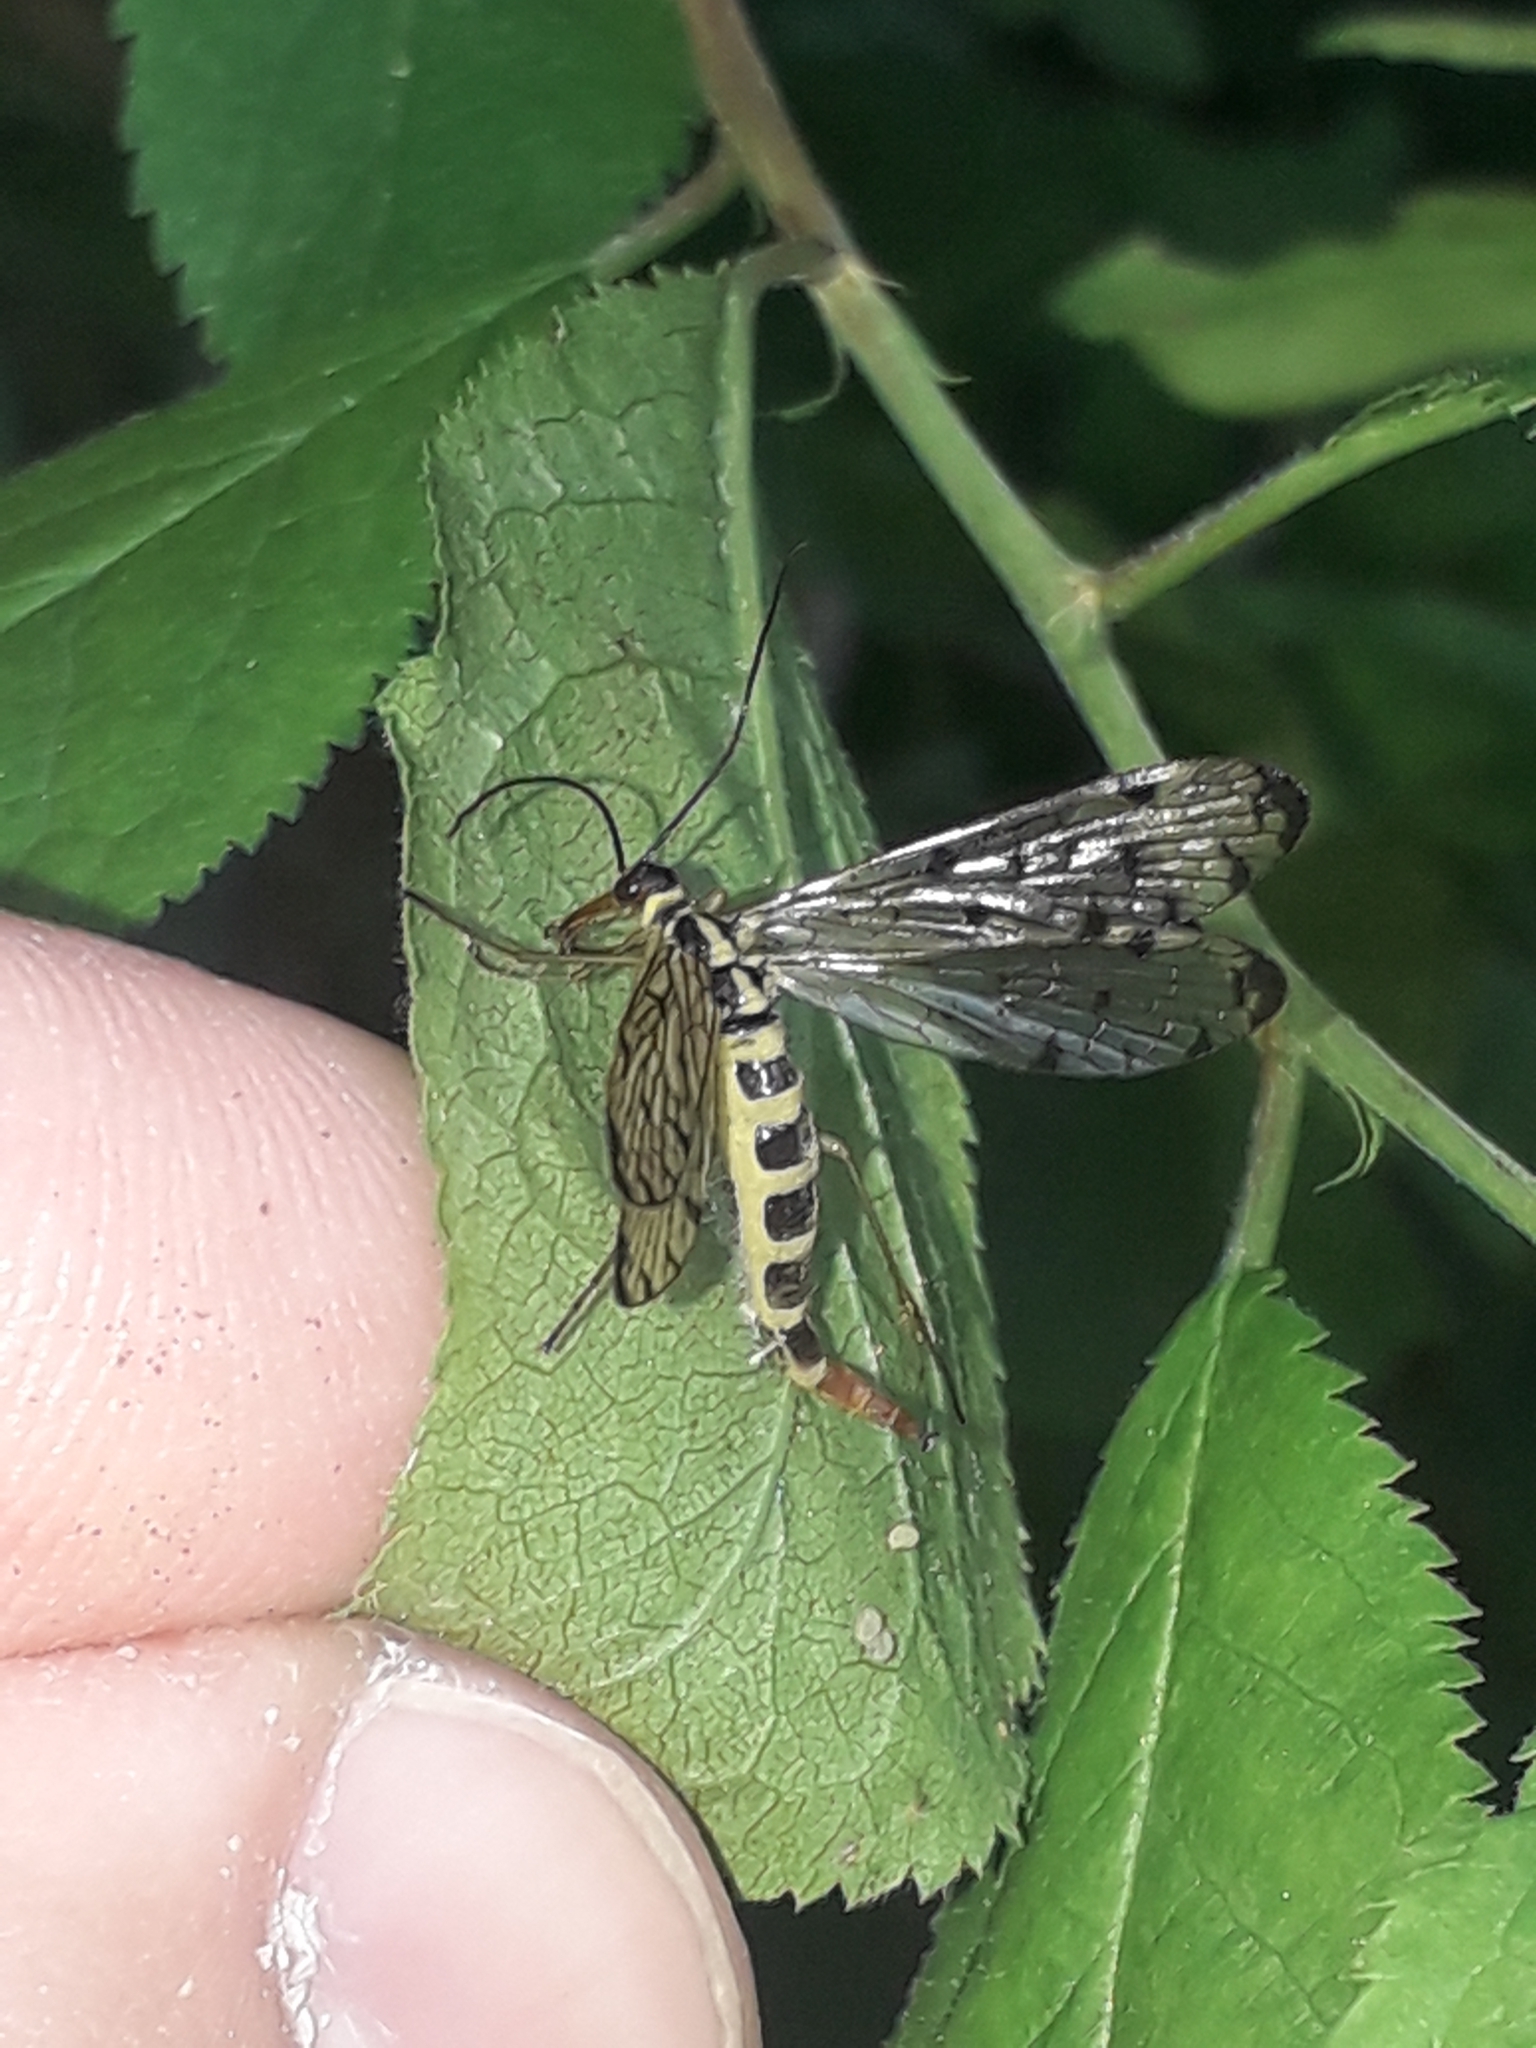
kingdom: Animalia
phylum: Arthropoda
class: Insecta
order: Mecoptera
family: Panorpidae
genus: Panorpa
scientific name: Panorpa germanica
